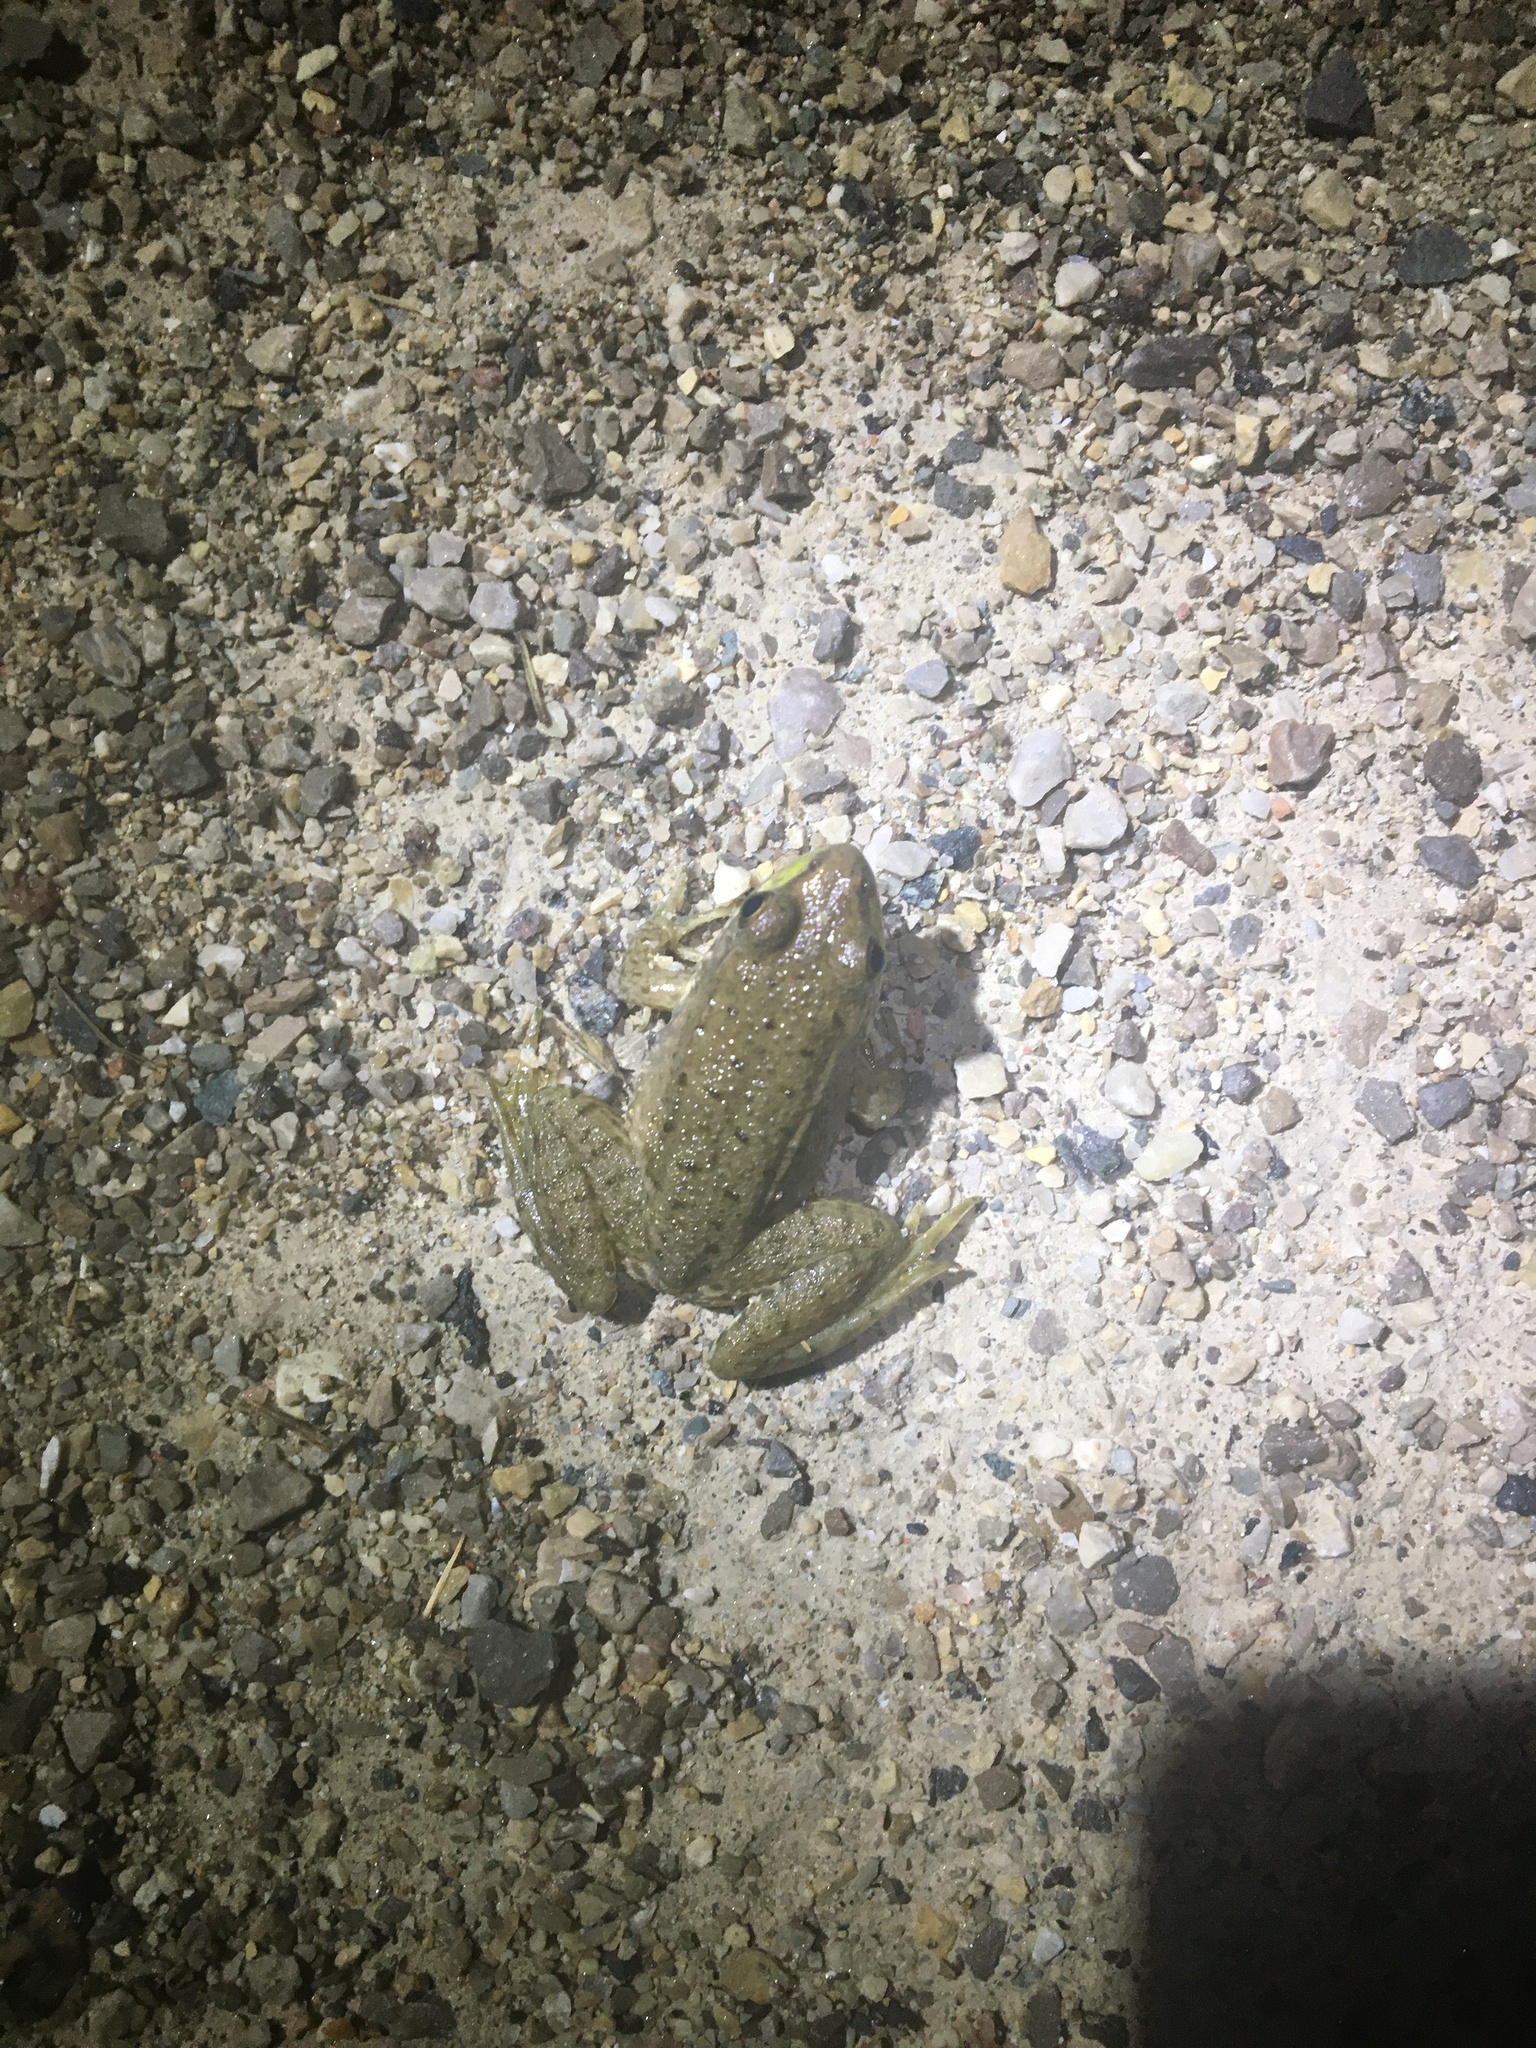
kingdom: Animalia
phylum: Chordata
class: Amphibia
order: Anura
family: Ranidae
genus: Lithobates
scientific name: Lithobates clamitans
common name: Green frog
